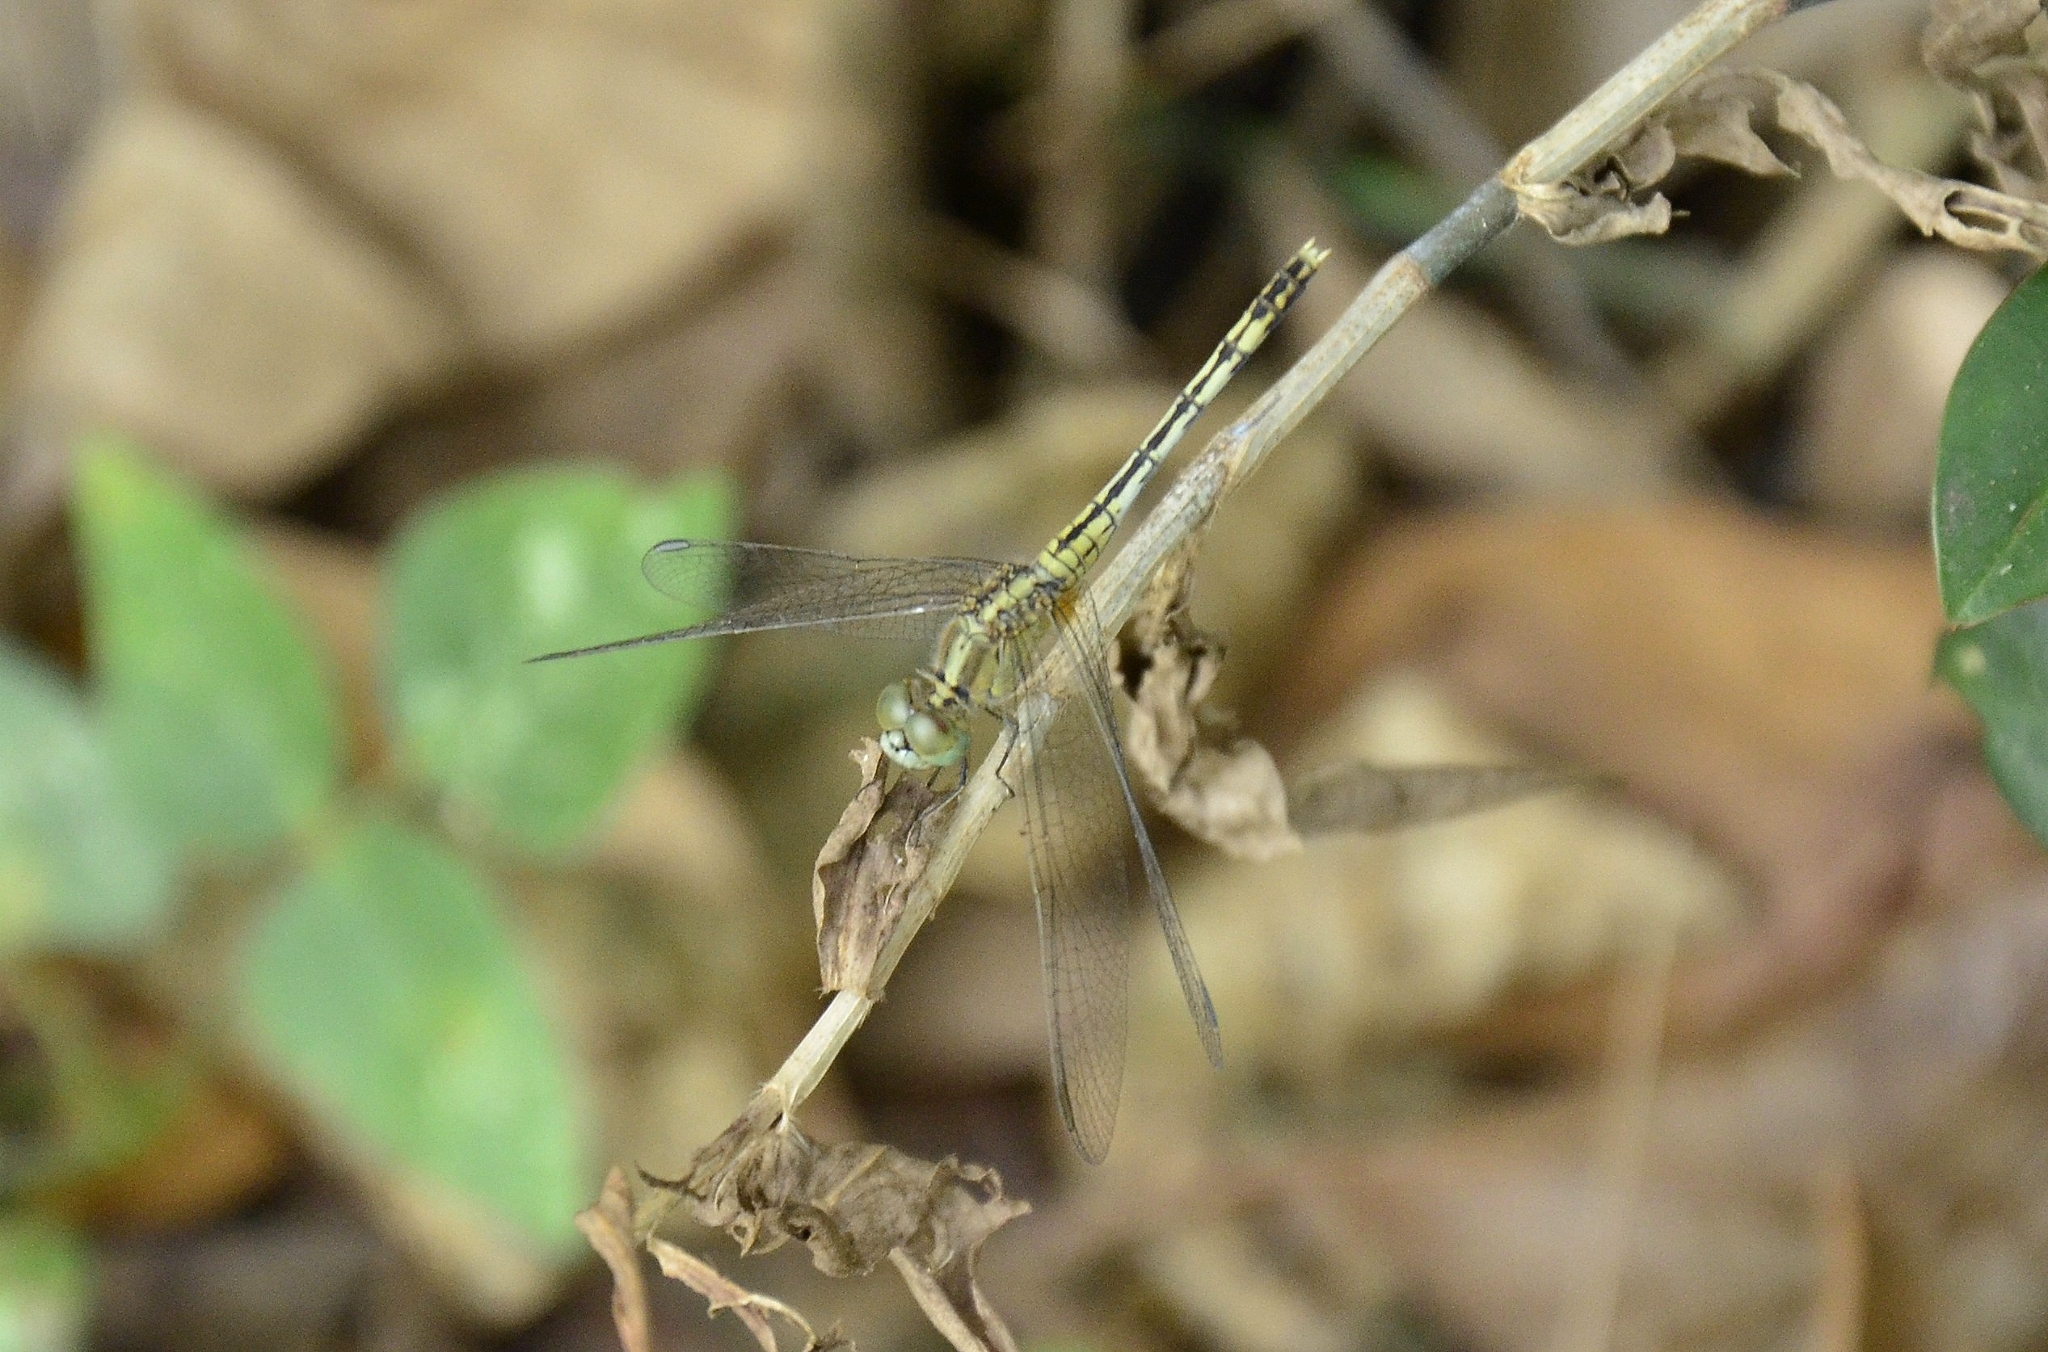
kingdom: Animalia
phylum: Arthropoda
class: Insecta
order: Odonata
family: Libellulidae
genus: Diplacodes
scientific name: Diplacodes trivialis
